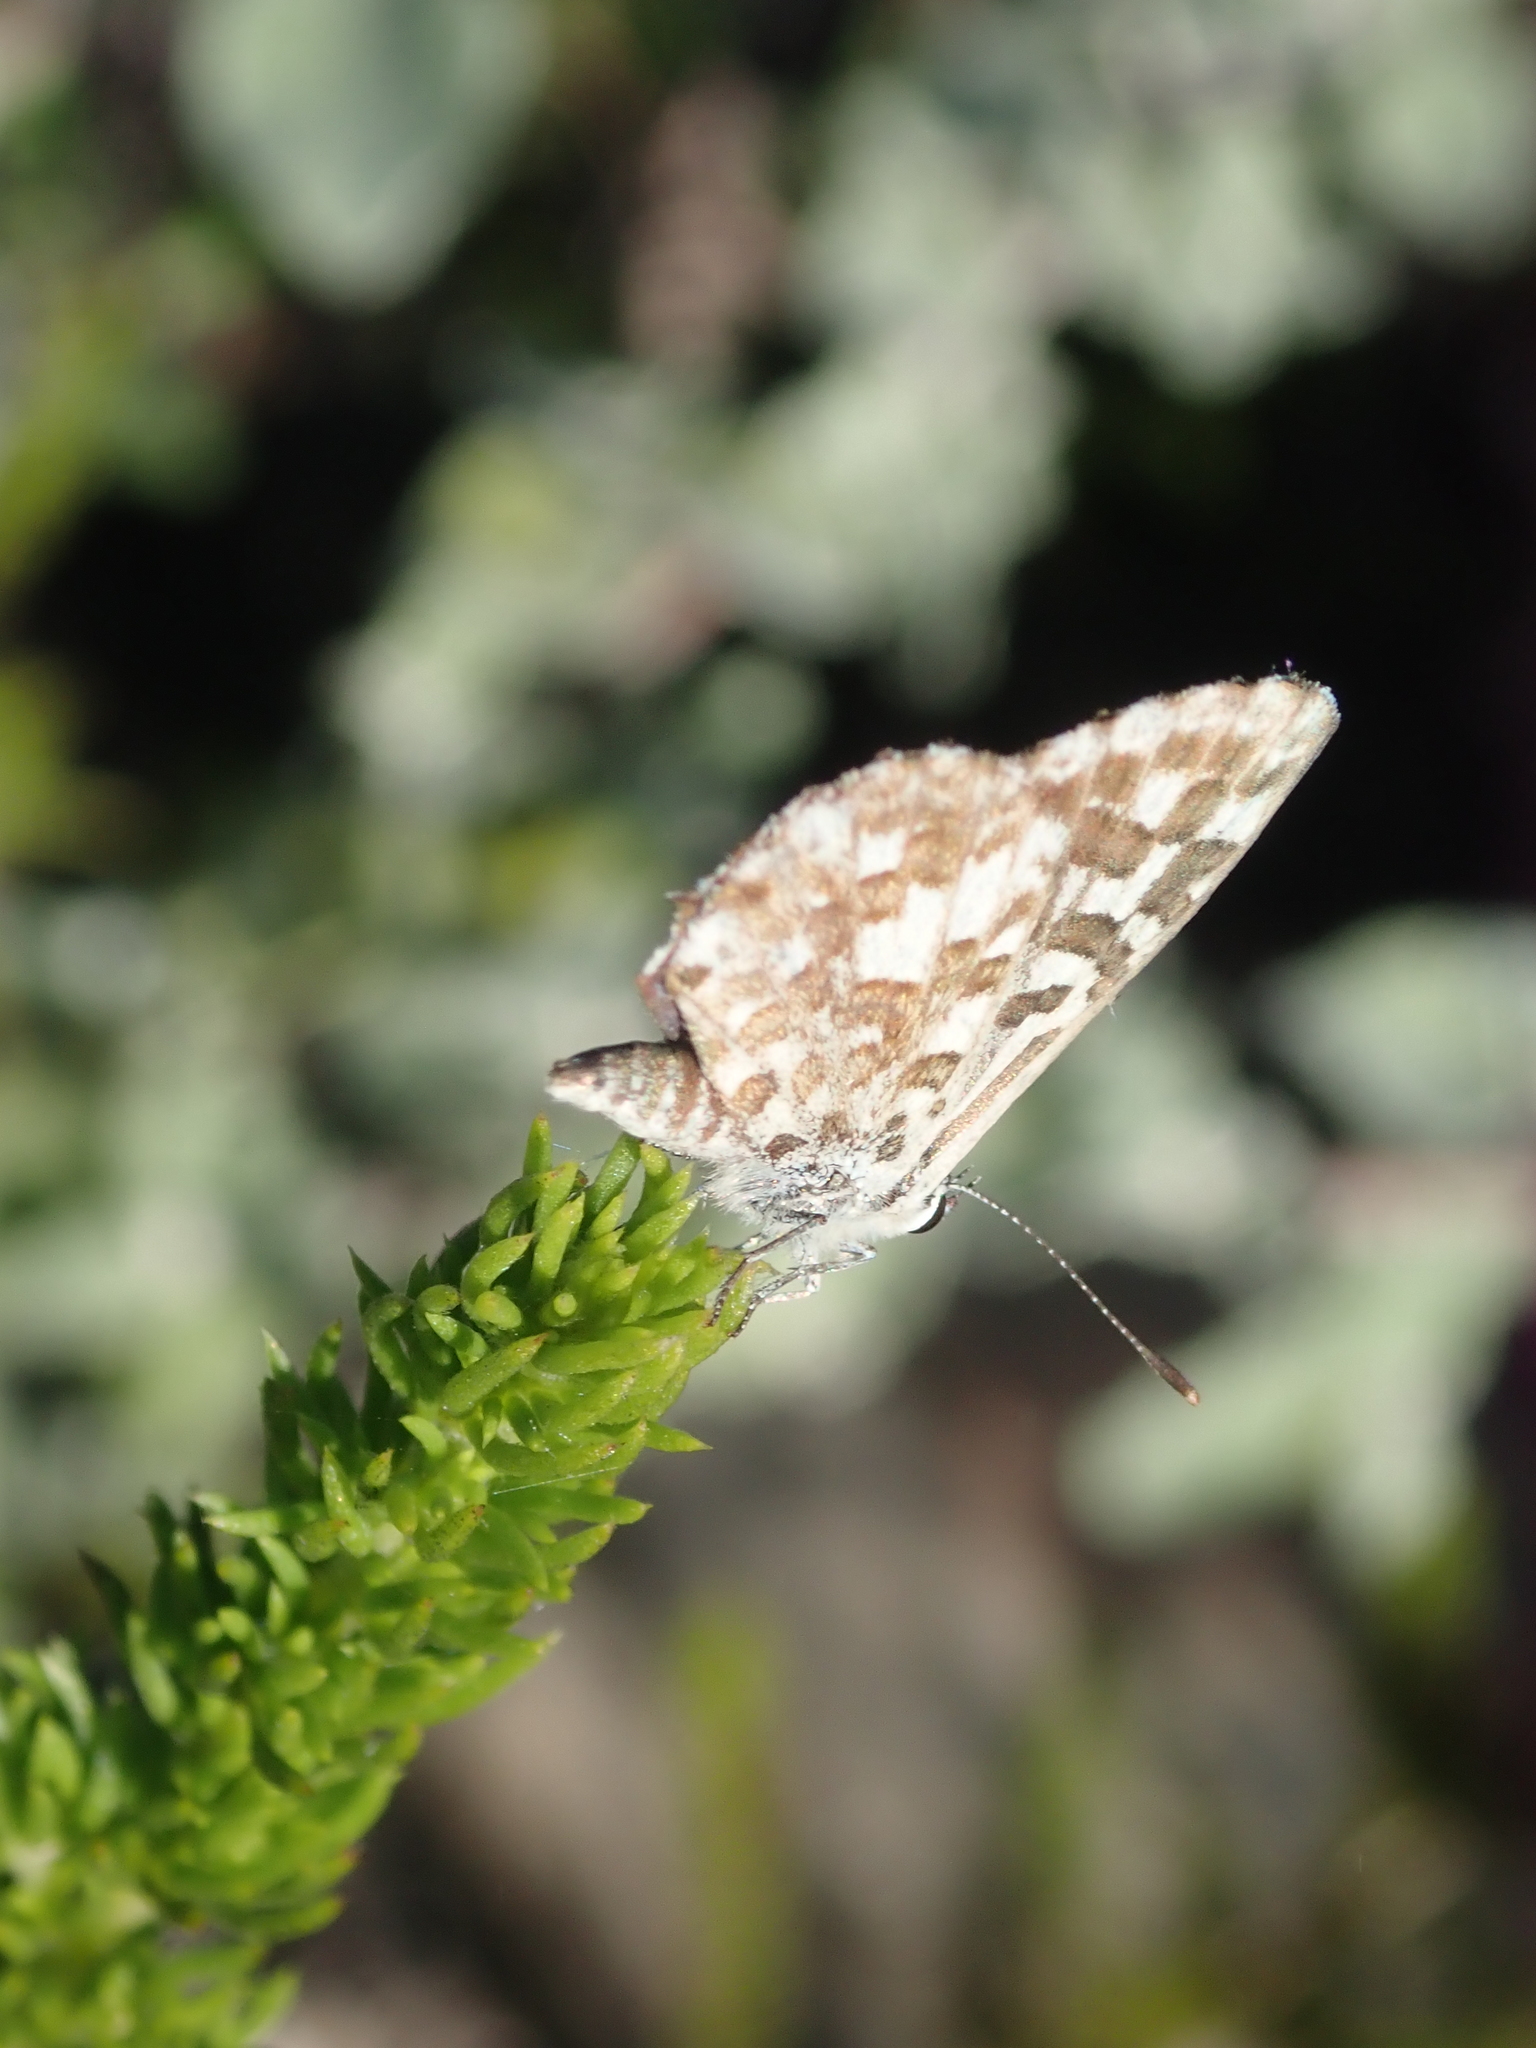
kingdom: Animalia
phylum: Arthropoda
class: Insecta
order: Lepidoptera
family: Lycaenidae
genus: Tarucus
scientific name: Tarucus thespis
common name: Vivid dotted blue
